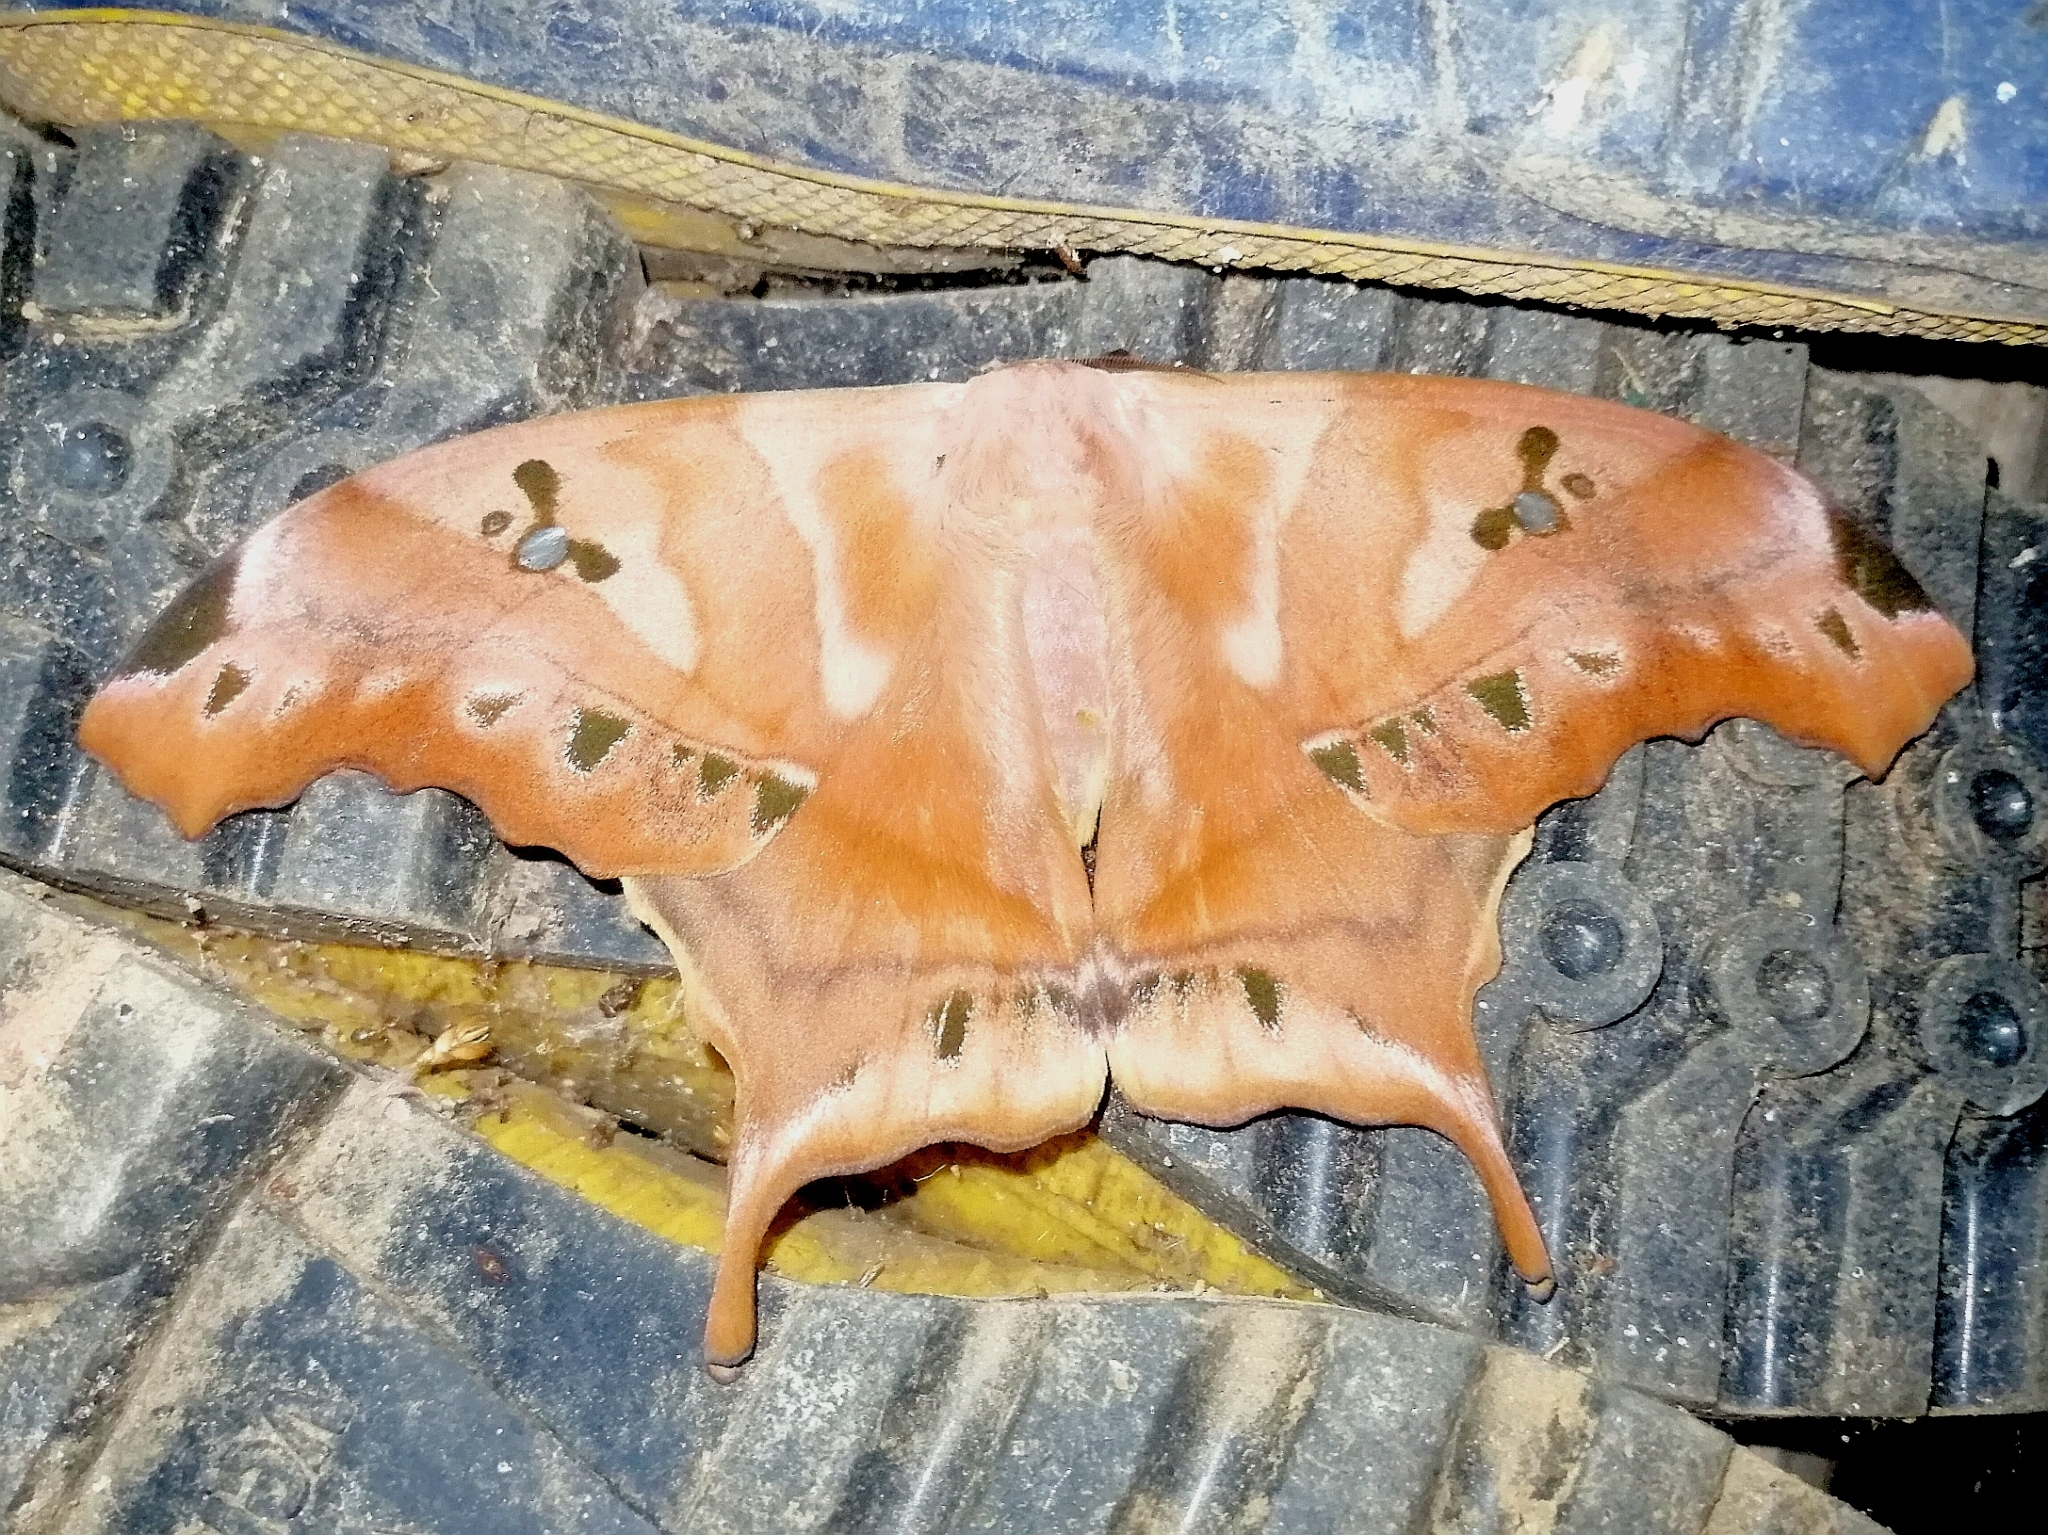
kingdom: Animalia
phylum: Arthropoda
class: Insecta
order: Lepidoptera
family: Saturniidae
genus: Titaea
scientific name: Titaea tamerlan
